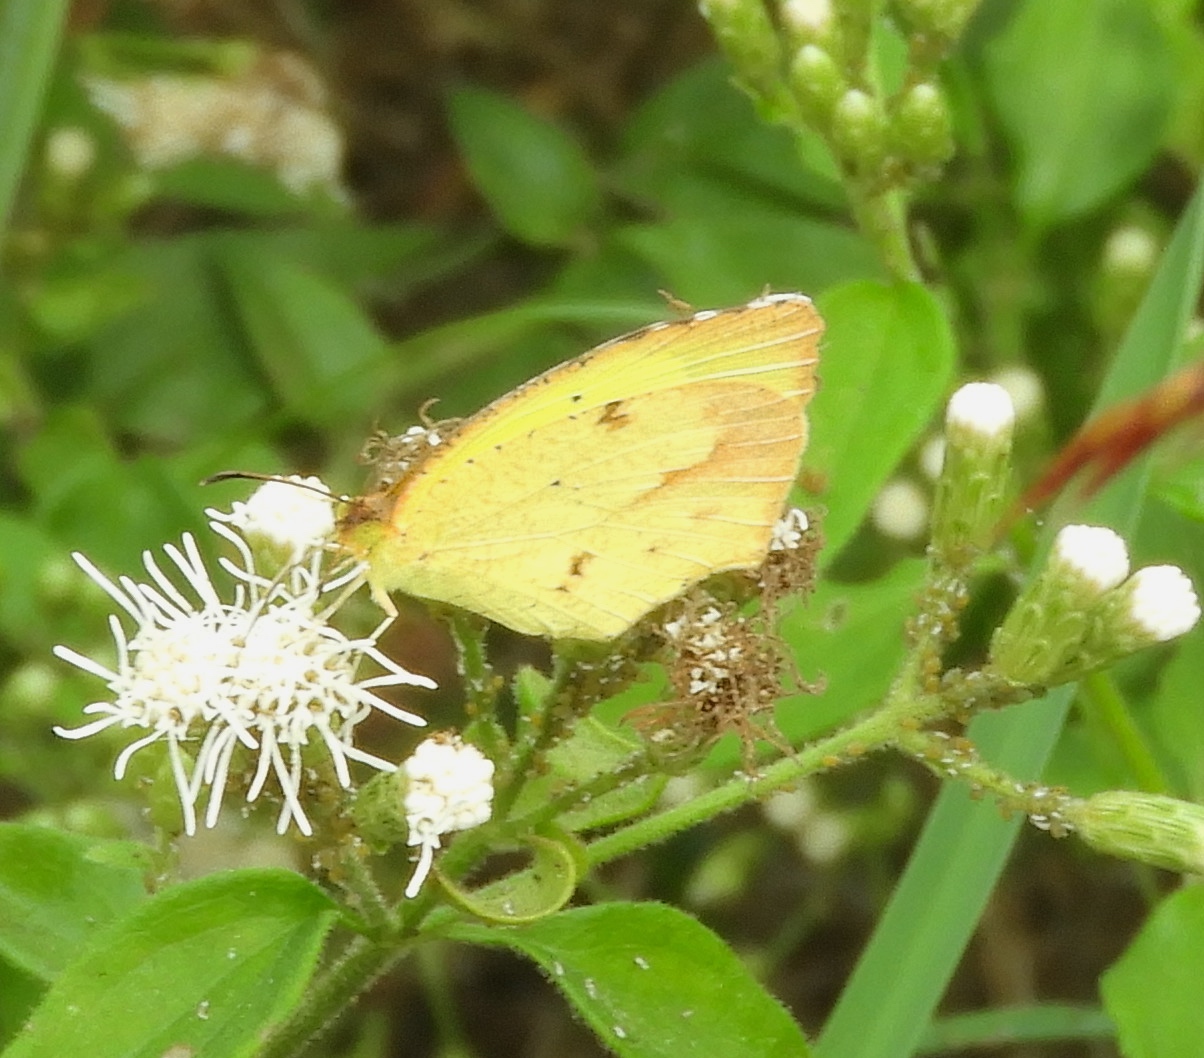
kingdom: Animalia
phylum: Arthropoda
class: Insecta
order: Lepidoptera
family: Pieridae
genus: Eurema
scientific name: Eurema
